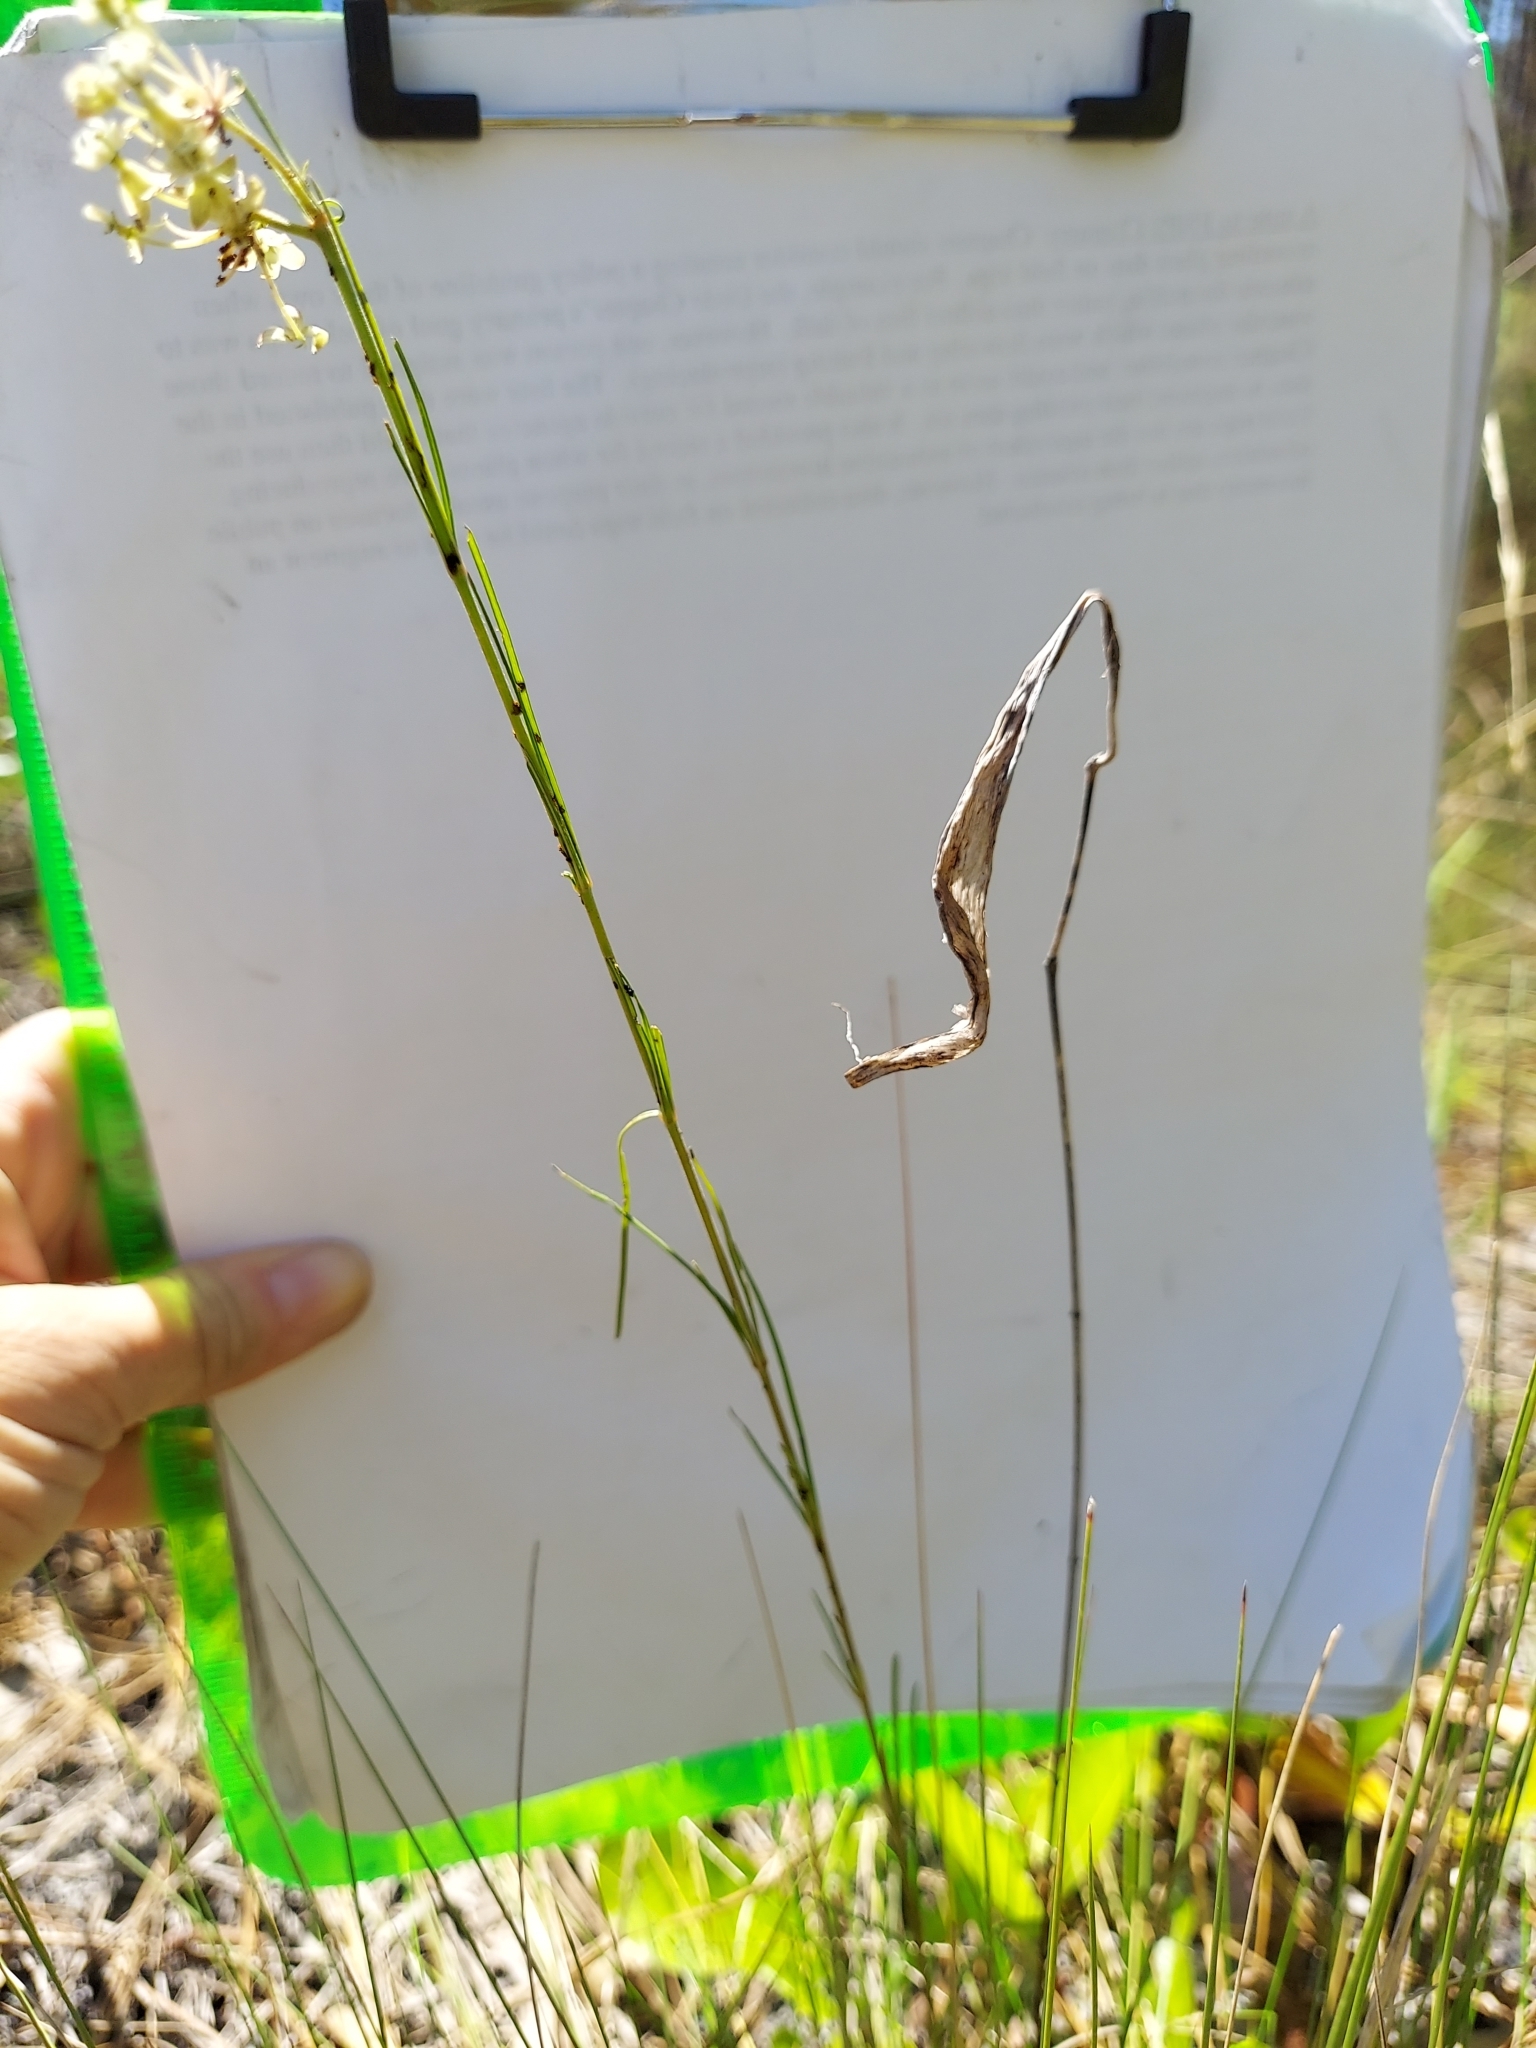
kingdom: Plantae
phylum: Tracheophyta
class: Magnoliopsida
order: Gentianales
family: Apocynaceae
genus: Asclepias
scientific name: Asclepias verticillata
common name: Eastern whorled milkweed
